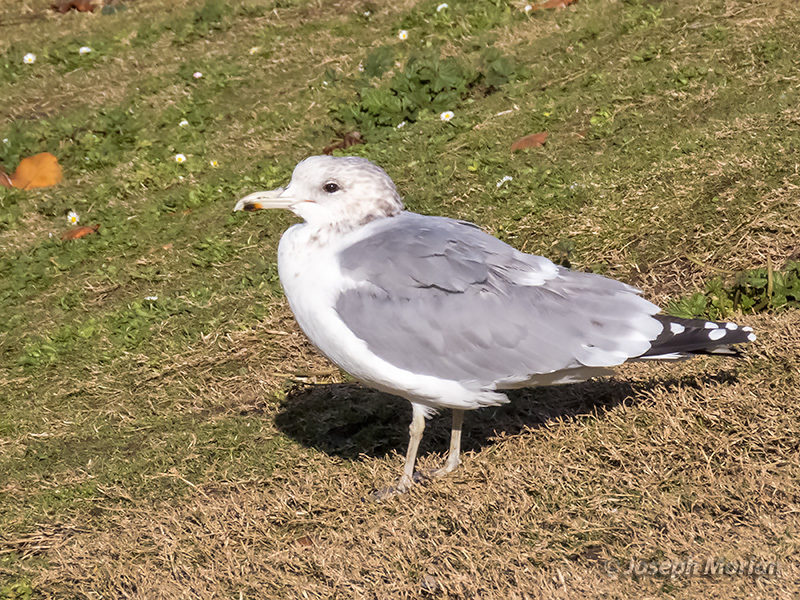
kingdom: Animalia
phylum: Chordata
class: Aves
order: Charadriiformes
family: Laridae
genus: Larus
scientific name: Larus californicus
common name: California gull
